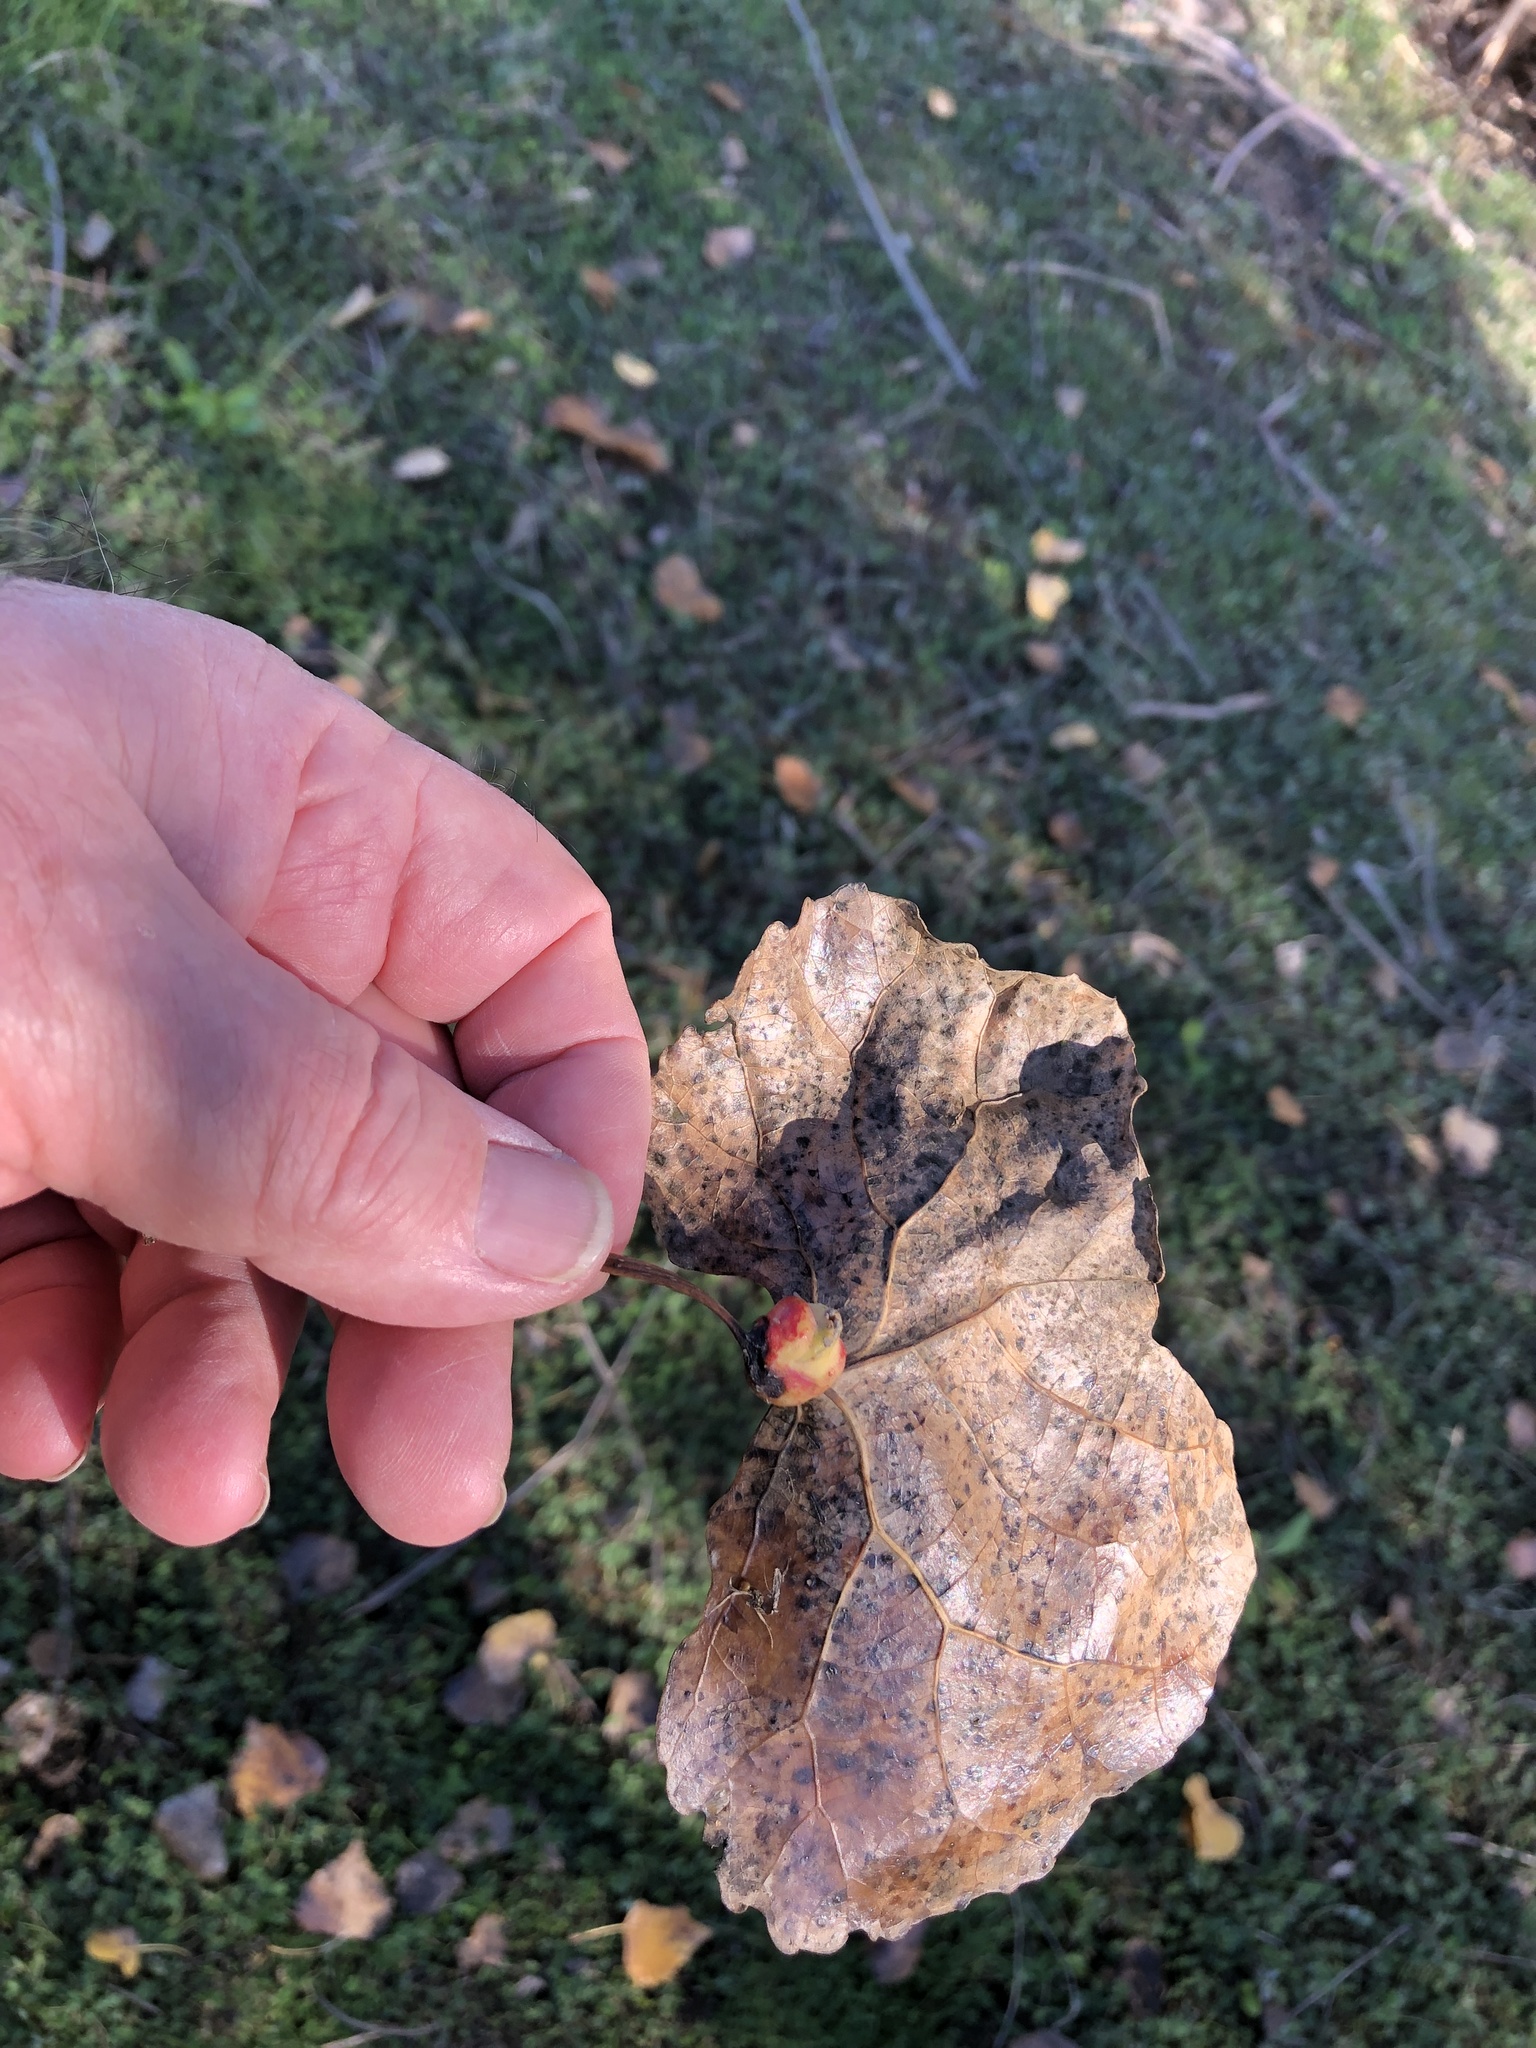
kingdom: Animalia
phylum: Arthropoda
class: Insecta
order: Hemiptera
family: Aphididae
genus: Pemphigus
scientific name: Pemphigus obesinymphae
